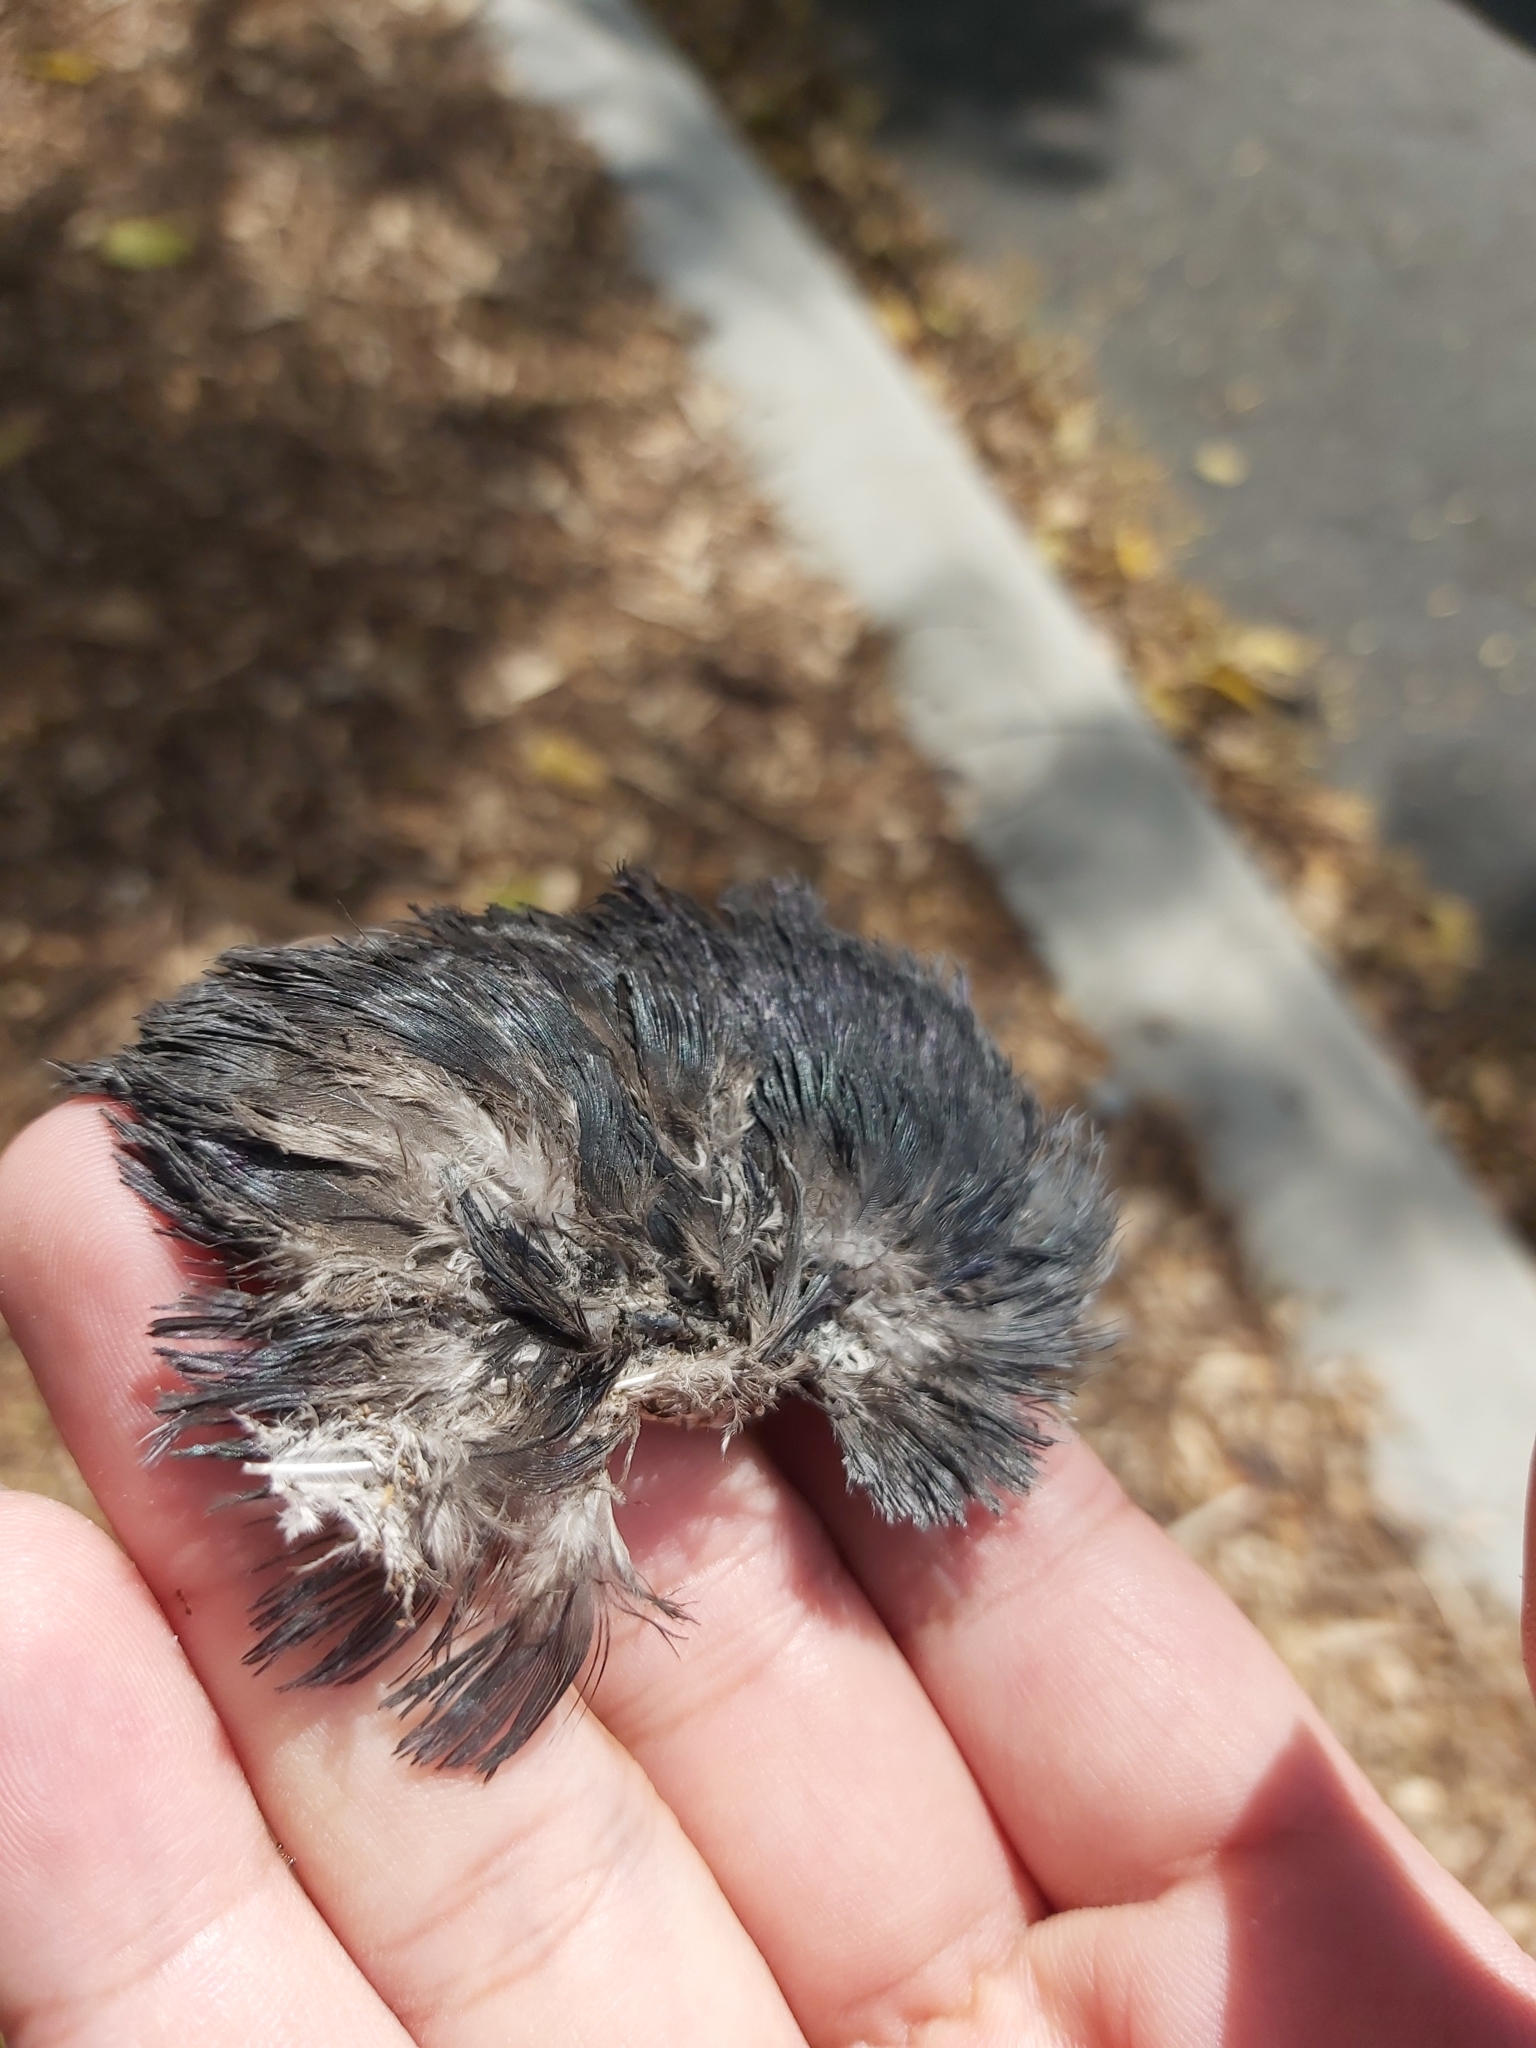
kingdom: Animalia
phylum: Chordata
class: Aves
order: Columbiformes
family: Columbidae
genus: Columba
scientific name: Columba livia
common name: Rock pigeon
